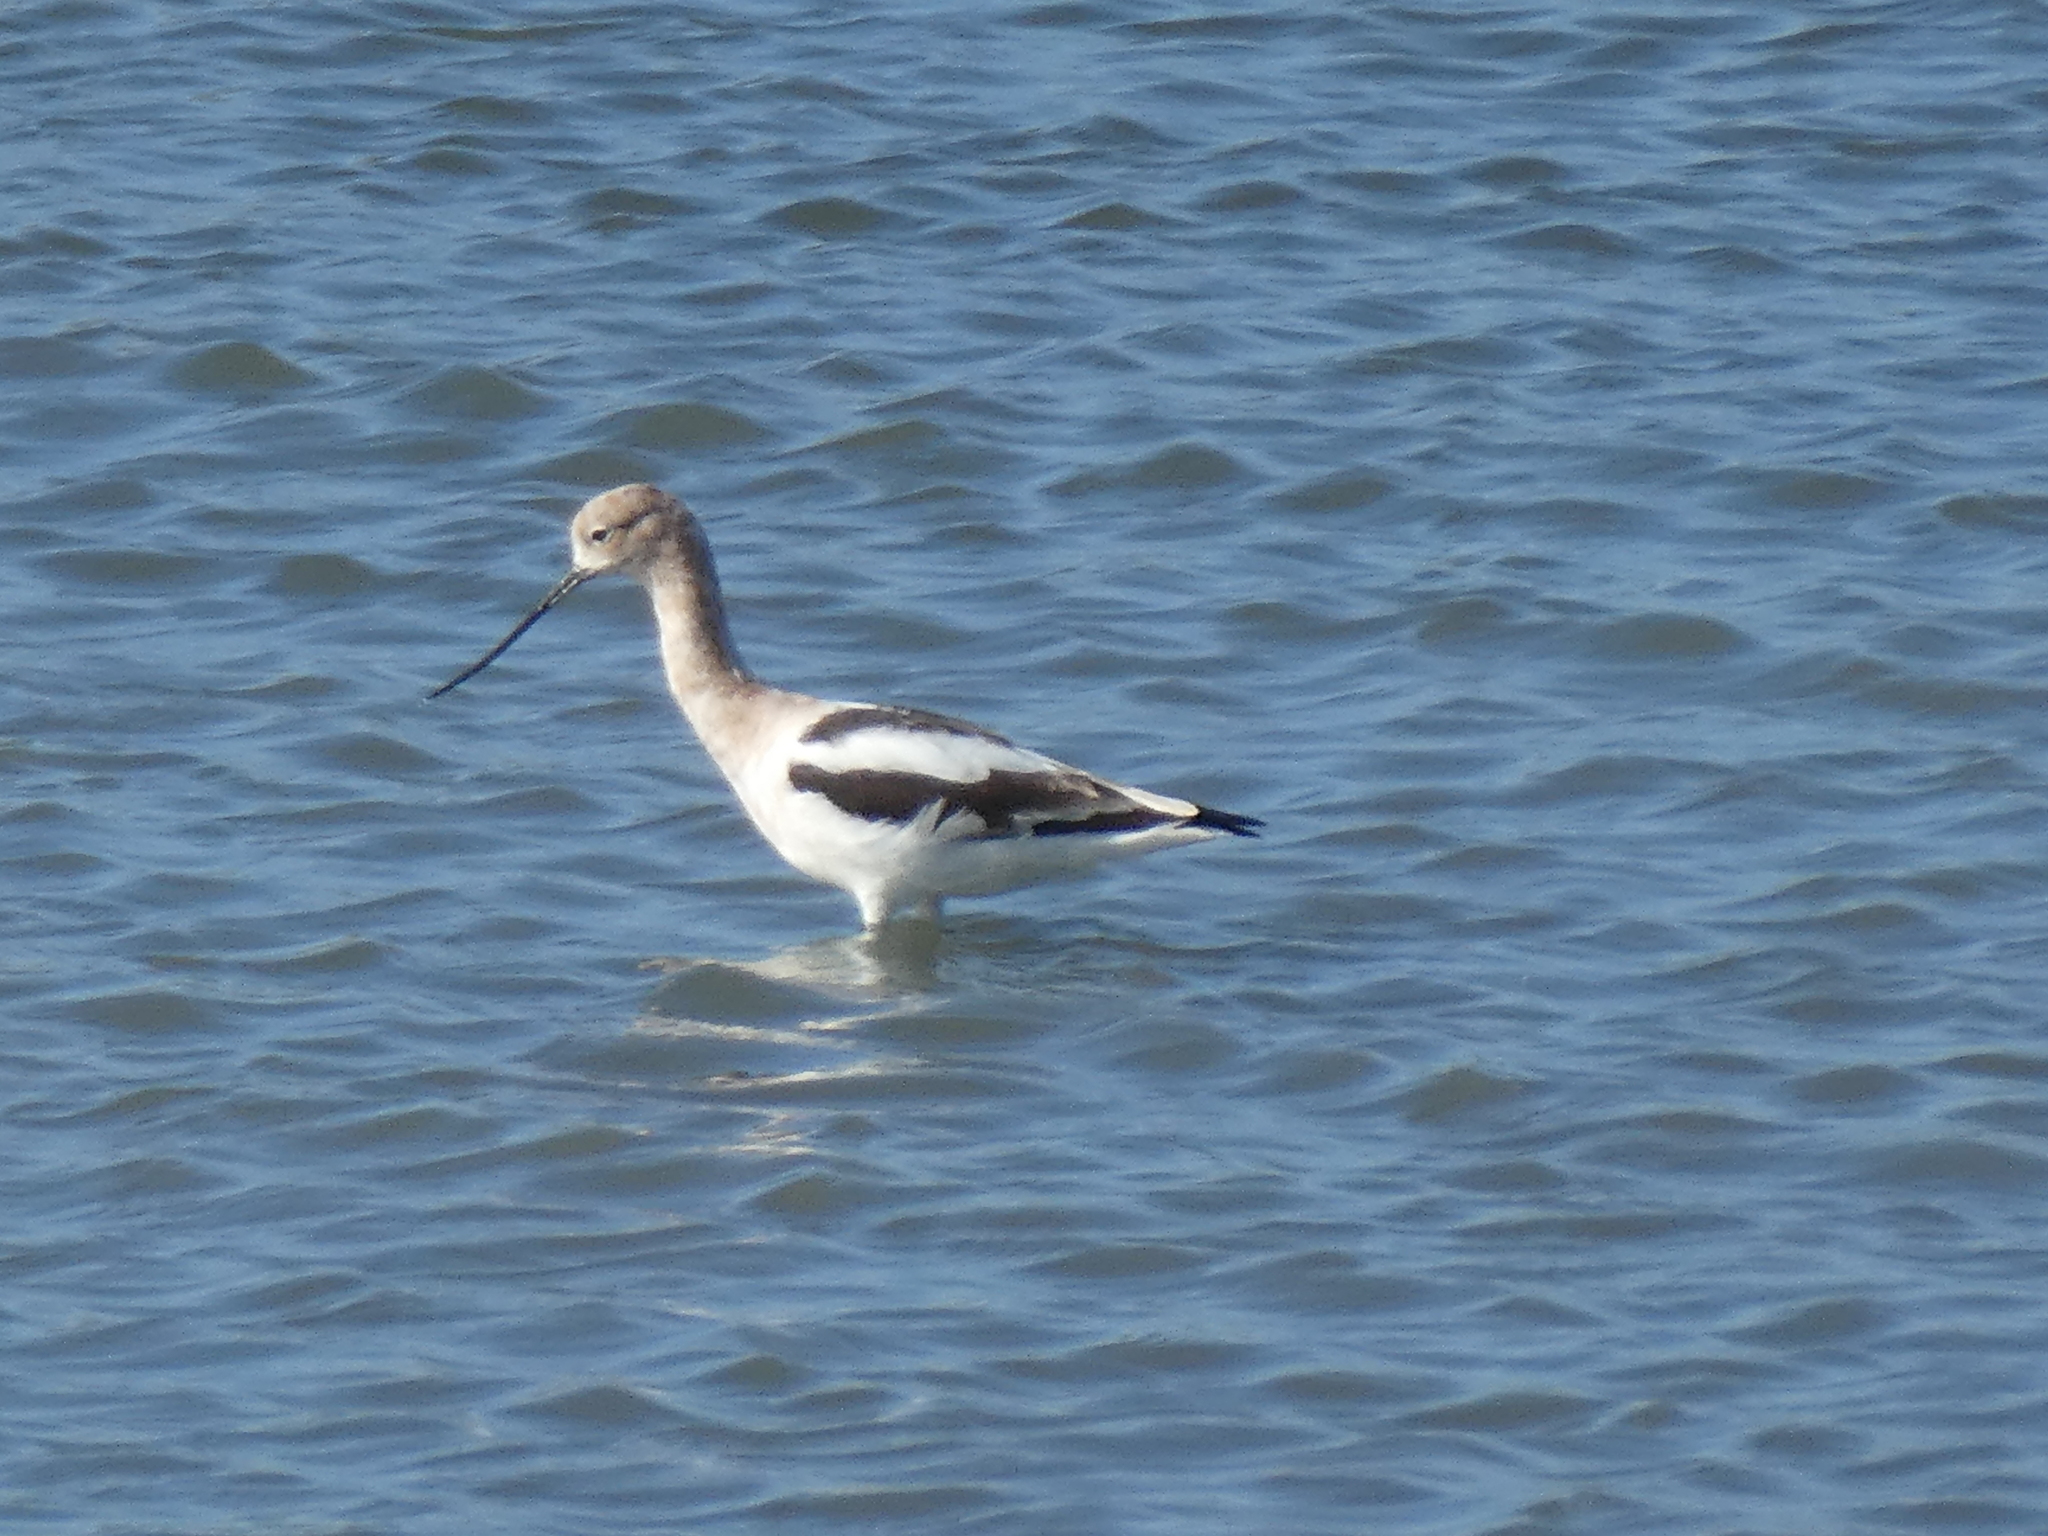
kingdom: Animalia
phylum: Chordata
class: Aves
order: Charadriiformes
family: Recurvirostridae
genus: Recurvirostra
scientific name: Recurvirostra americana
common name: American avocet
